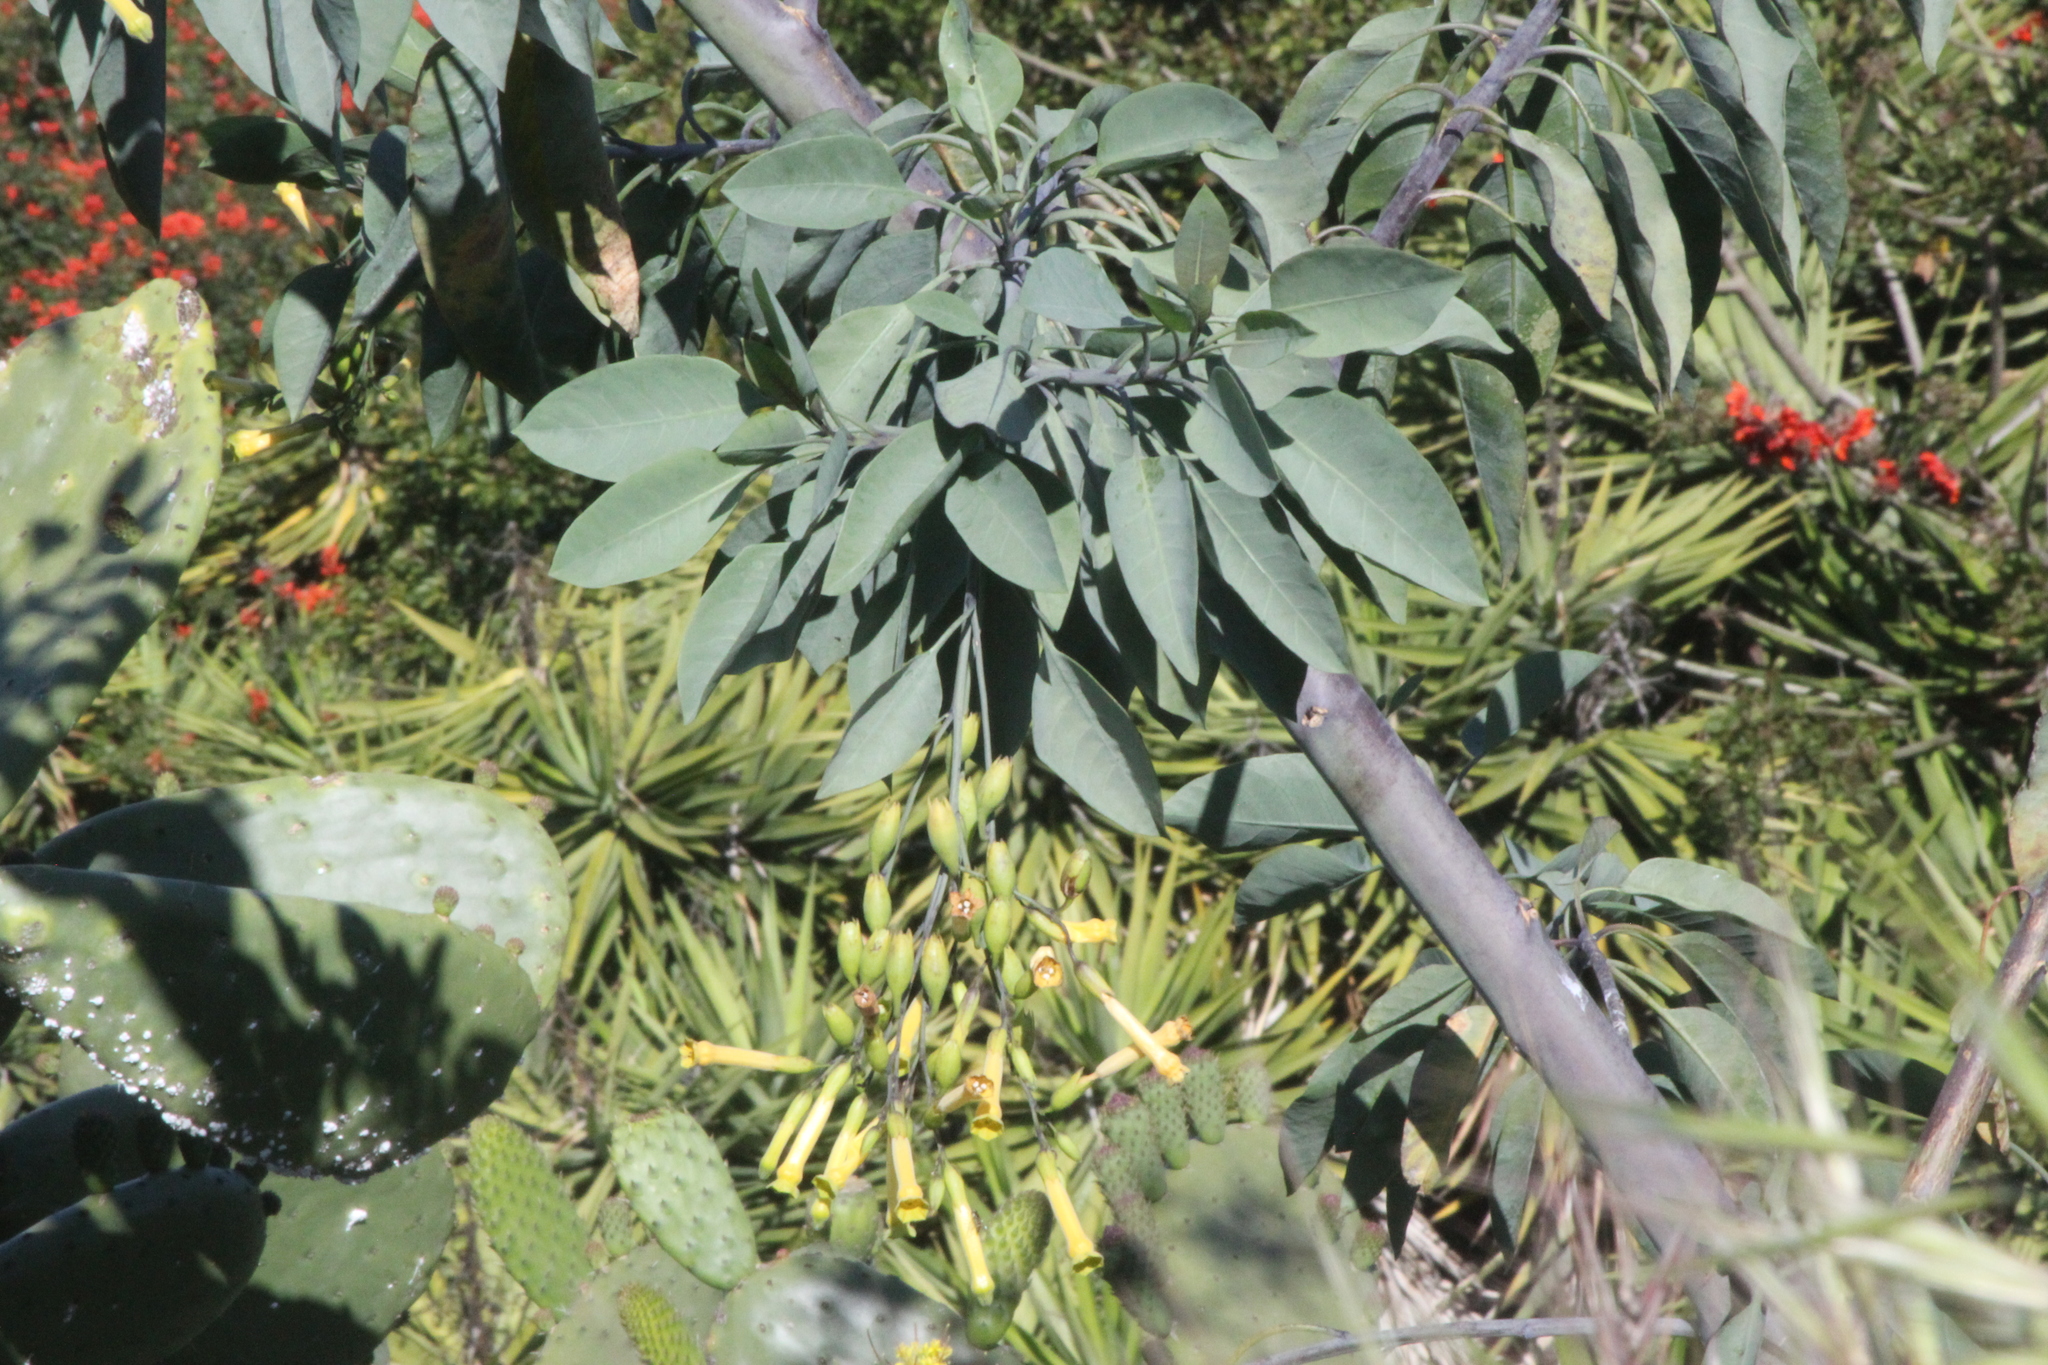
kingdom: Plantae
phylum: Tracheophyta
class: Magnoliopsida
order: Solanales
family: Solanaceae
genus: Nicotiana
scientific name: Nicotiana glauca
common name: Tree tobacco
